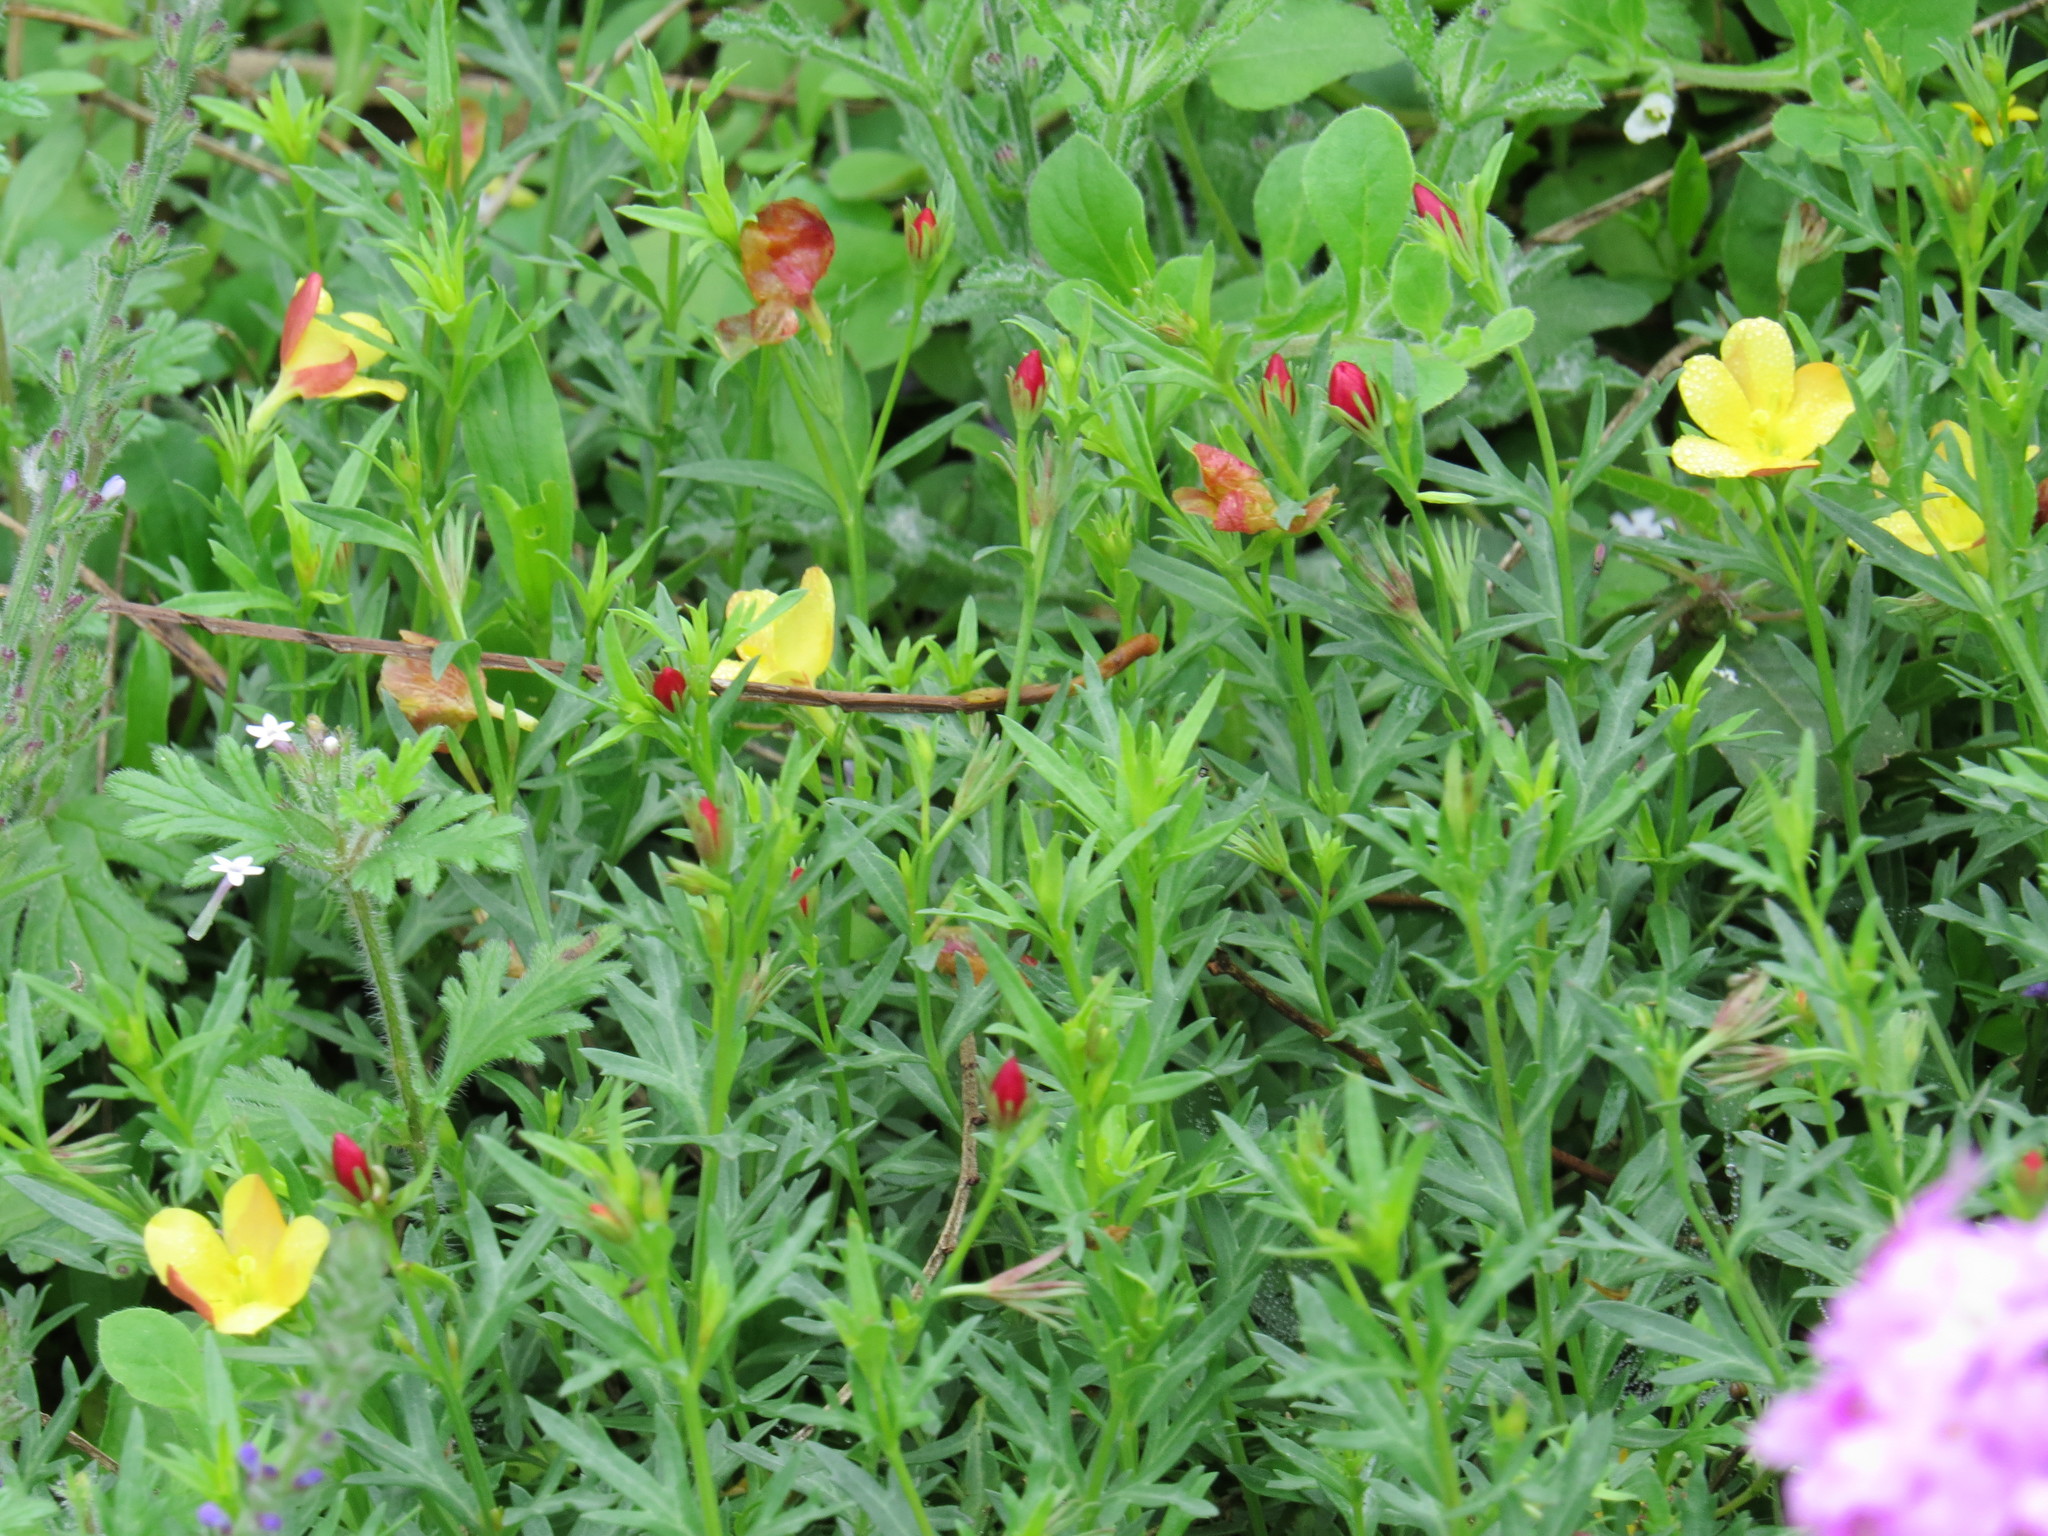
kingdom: Plantae
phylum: Tracheophyta
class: Magnoliopsida
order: Lamiales
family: Oleaceae
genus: Menodora
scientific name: Menodora heterophylla
